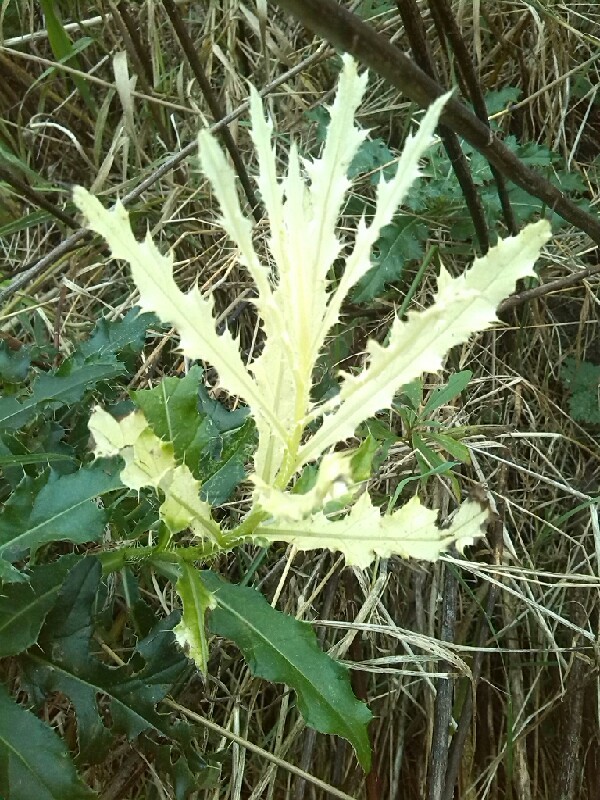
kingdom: Bacteria
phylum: Proteobacteria
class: Gammaproteobacteria
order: Pseudomonadales
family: Pseudomonadaceae
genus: Pseudomonas
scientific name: Pseudomonas syringae
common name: Bacterial speck
